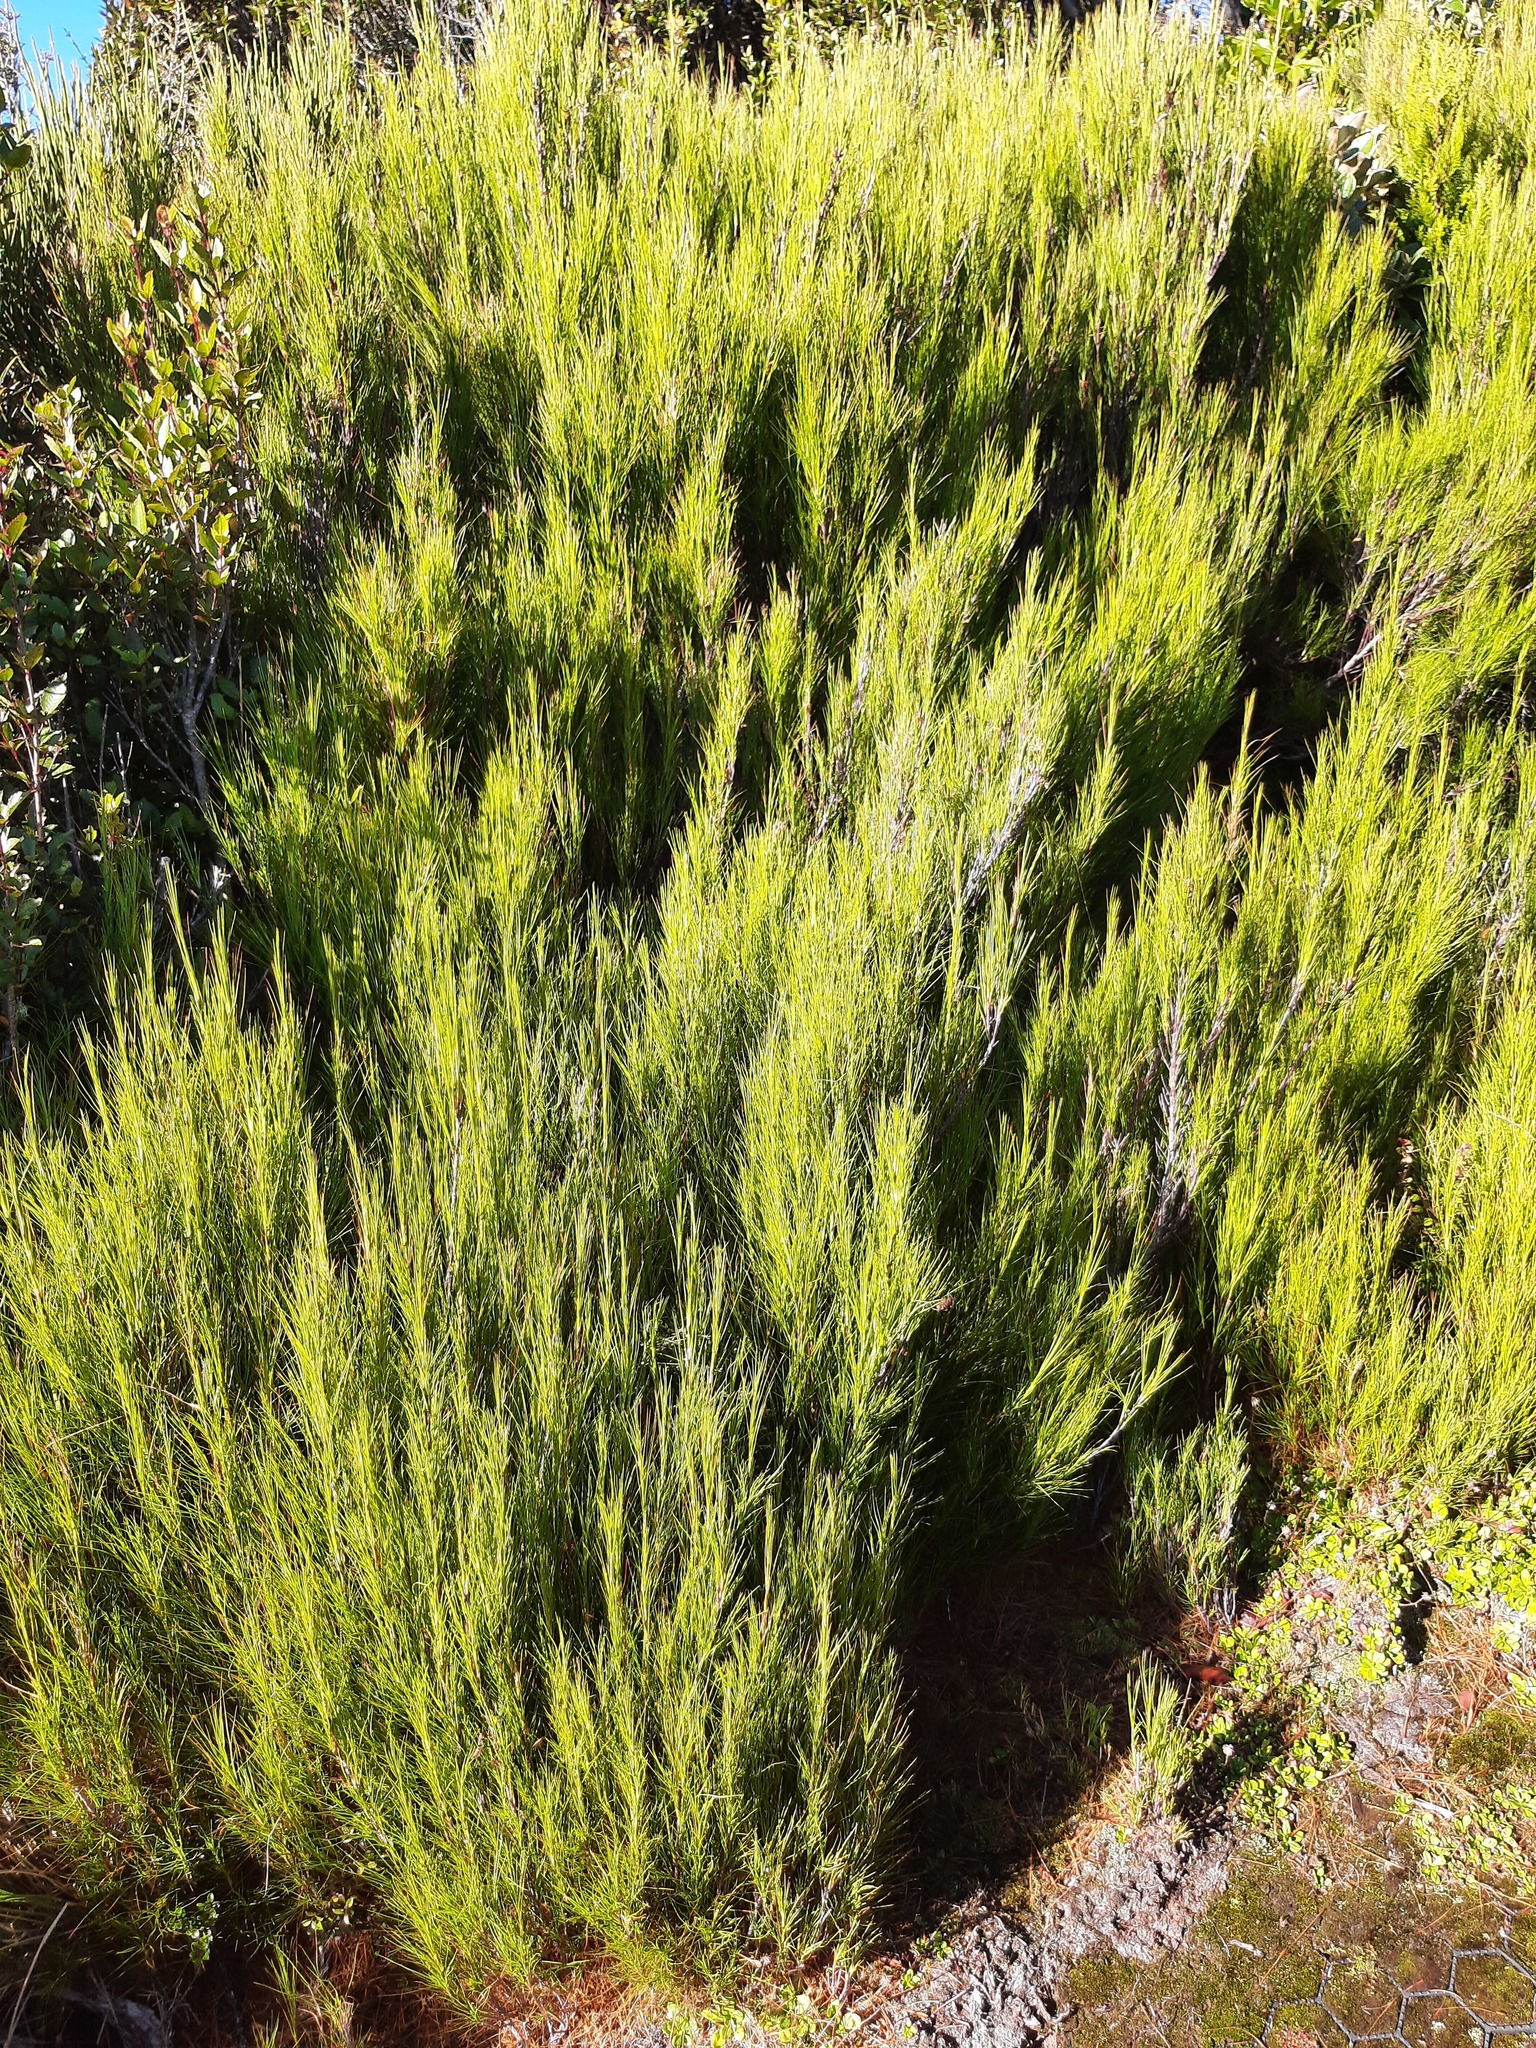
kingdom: Plantae
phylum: Tracheophyta
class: Magnoliopsida
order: Ericales
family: Ericaceae
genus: Dracophyllum
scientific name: Dracophyllum filifolium
